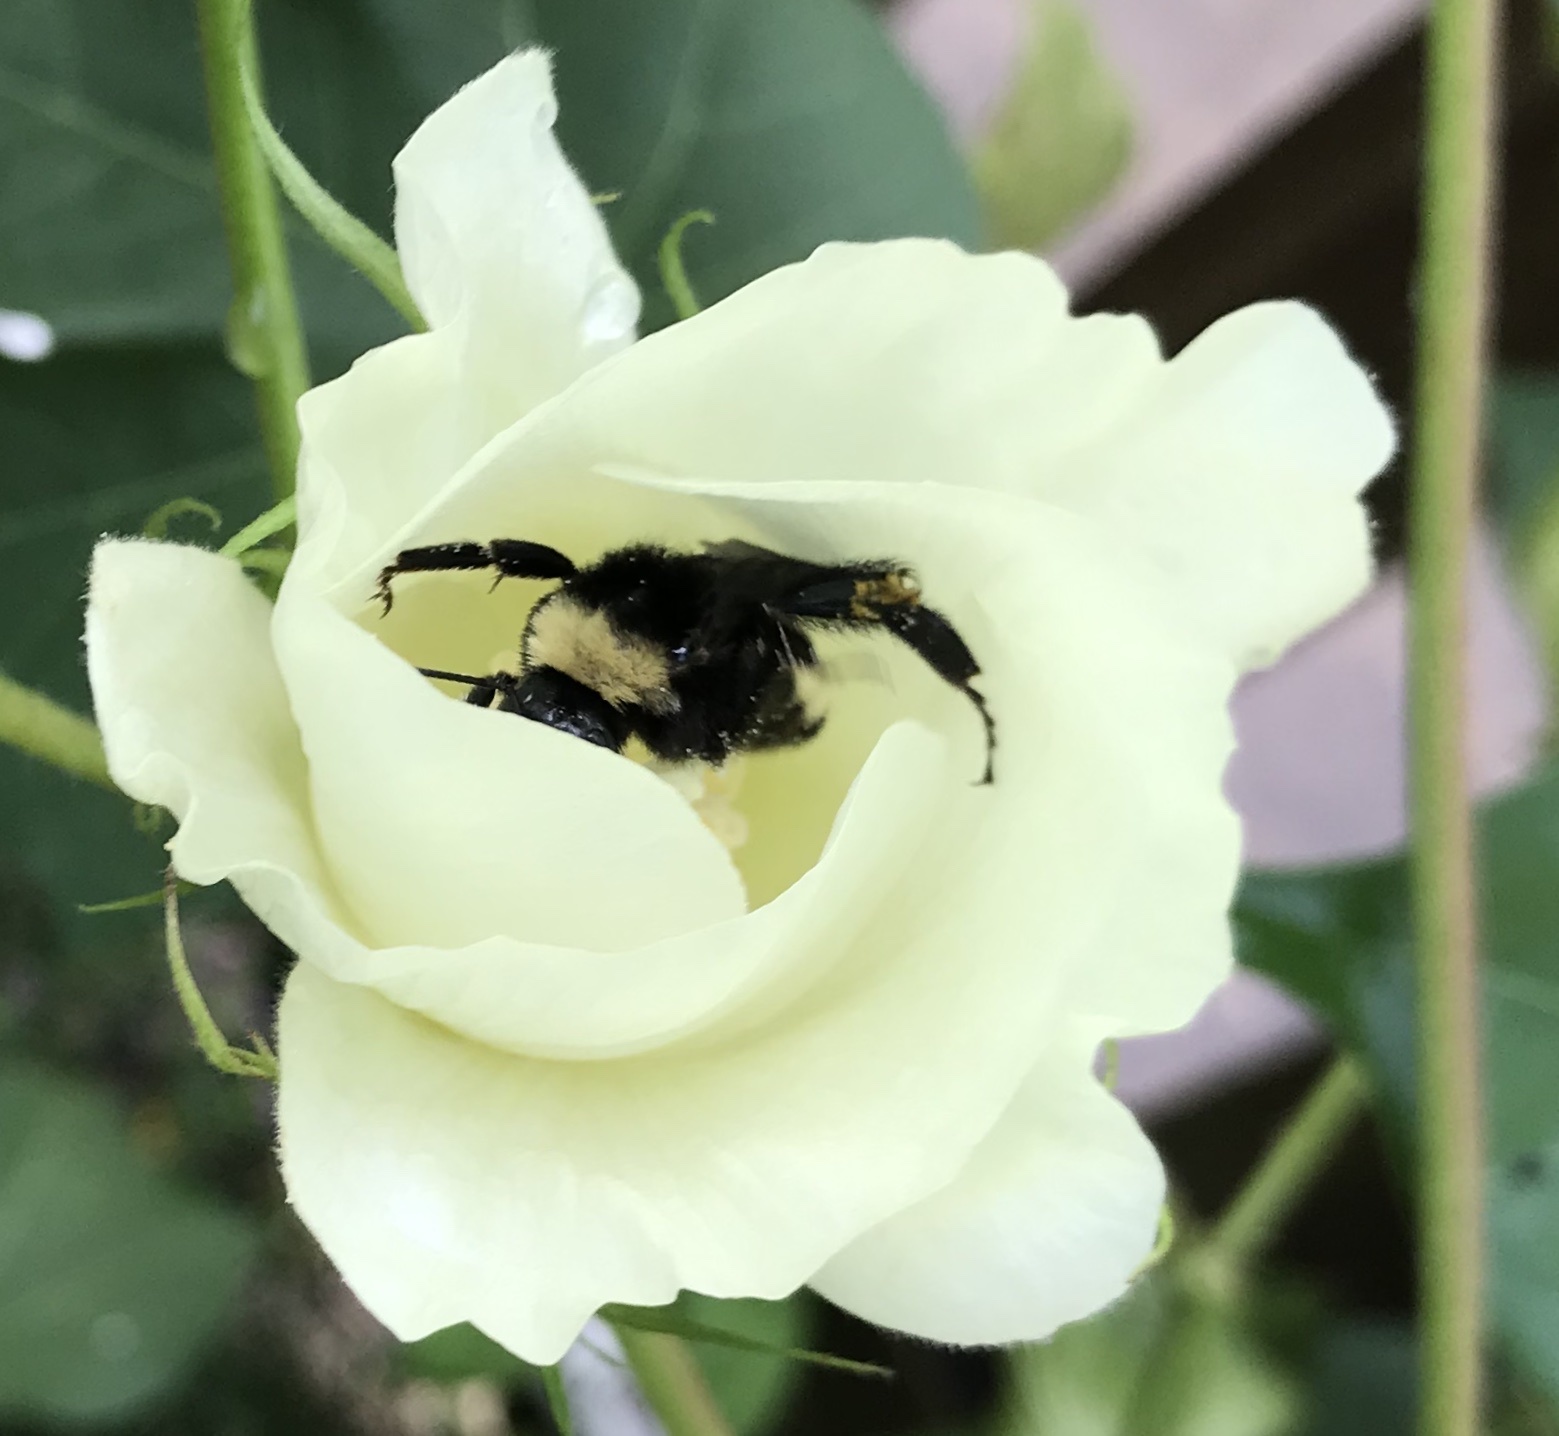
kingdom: Animalia
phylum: Arthropoda
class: Insecta
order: Hymenoptera
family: Apidae
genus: Bombus
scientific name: Bombus pensylvanicus
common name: Bumble bee
